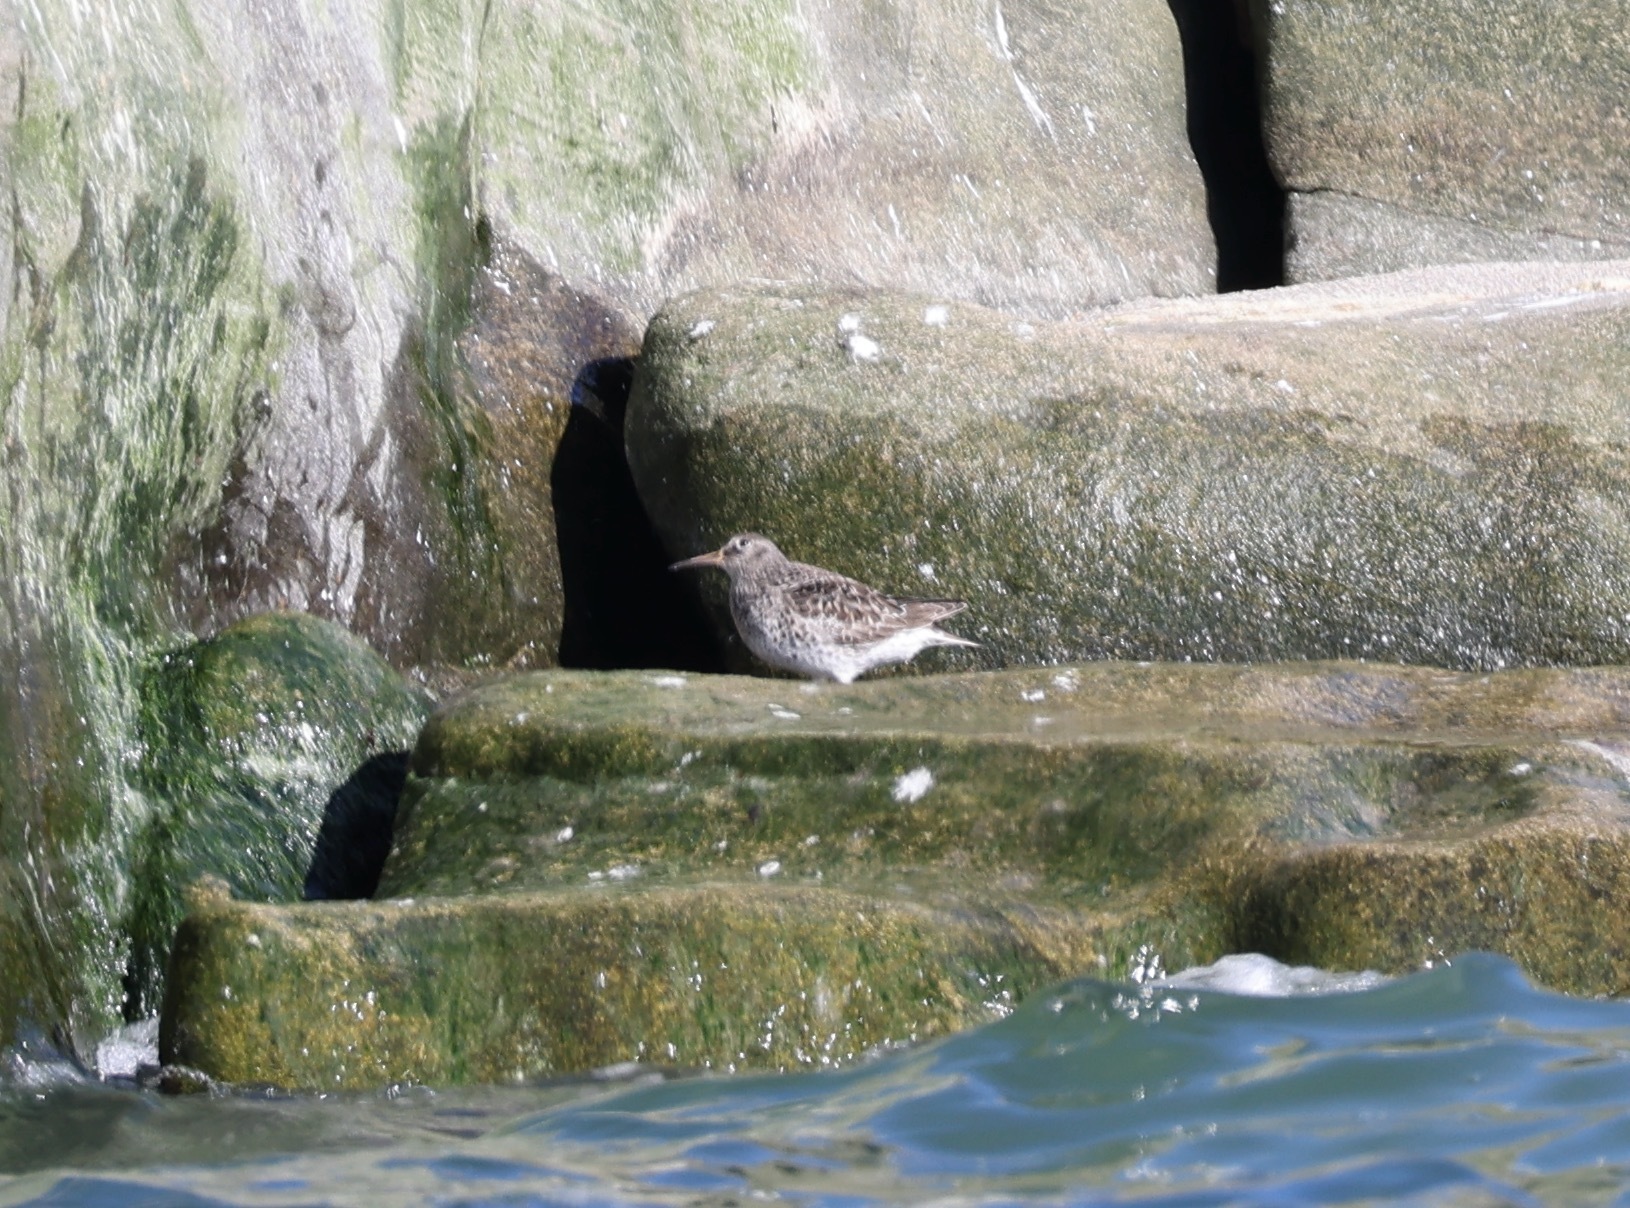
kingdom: Animalia
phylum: Chordata
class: Aves
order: Charadriiformes
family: Scolopacidae
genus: Calidris
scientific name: Calidris maritima
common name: Purple sandpiper
